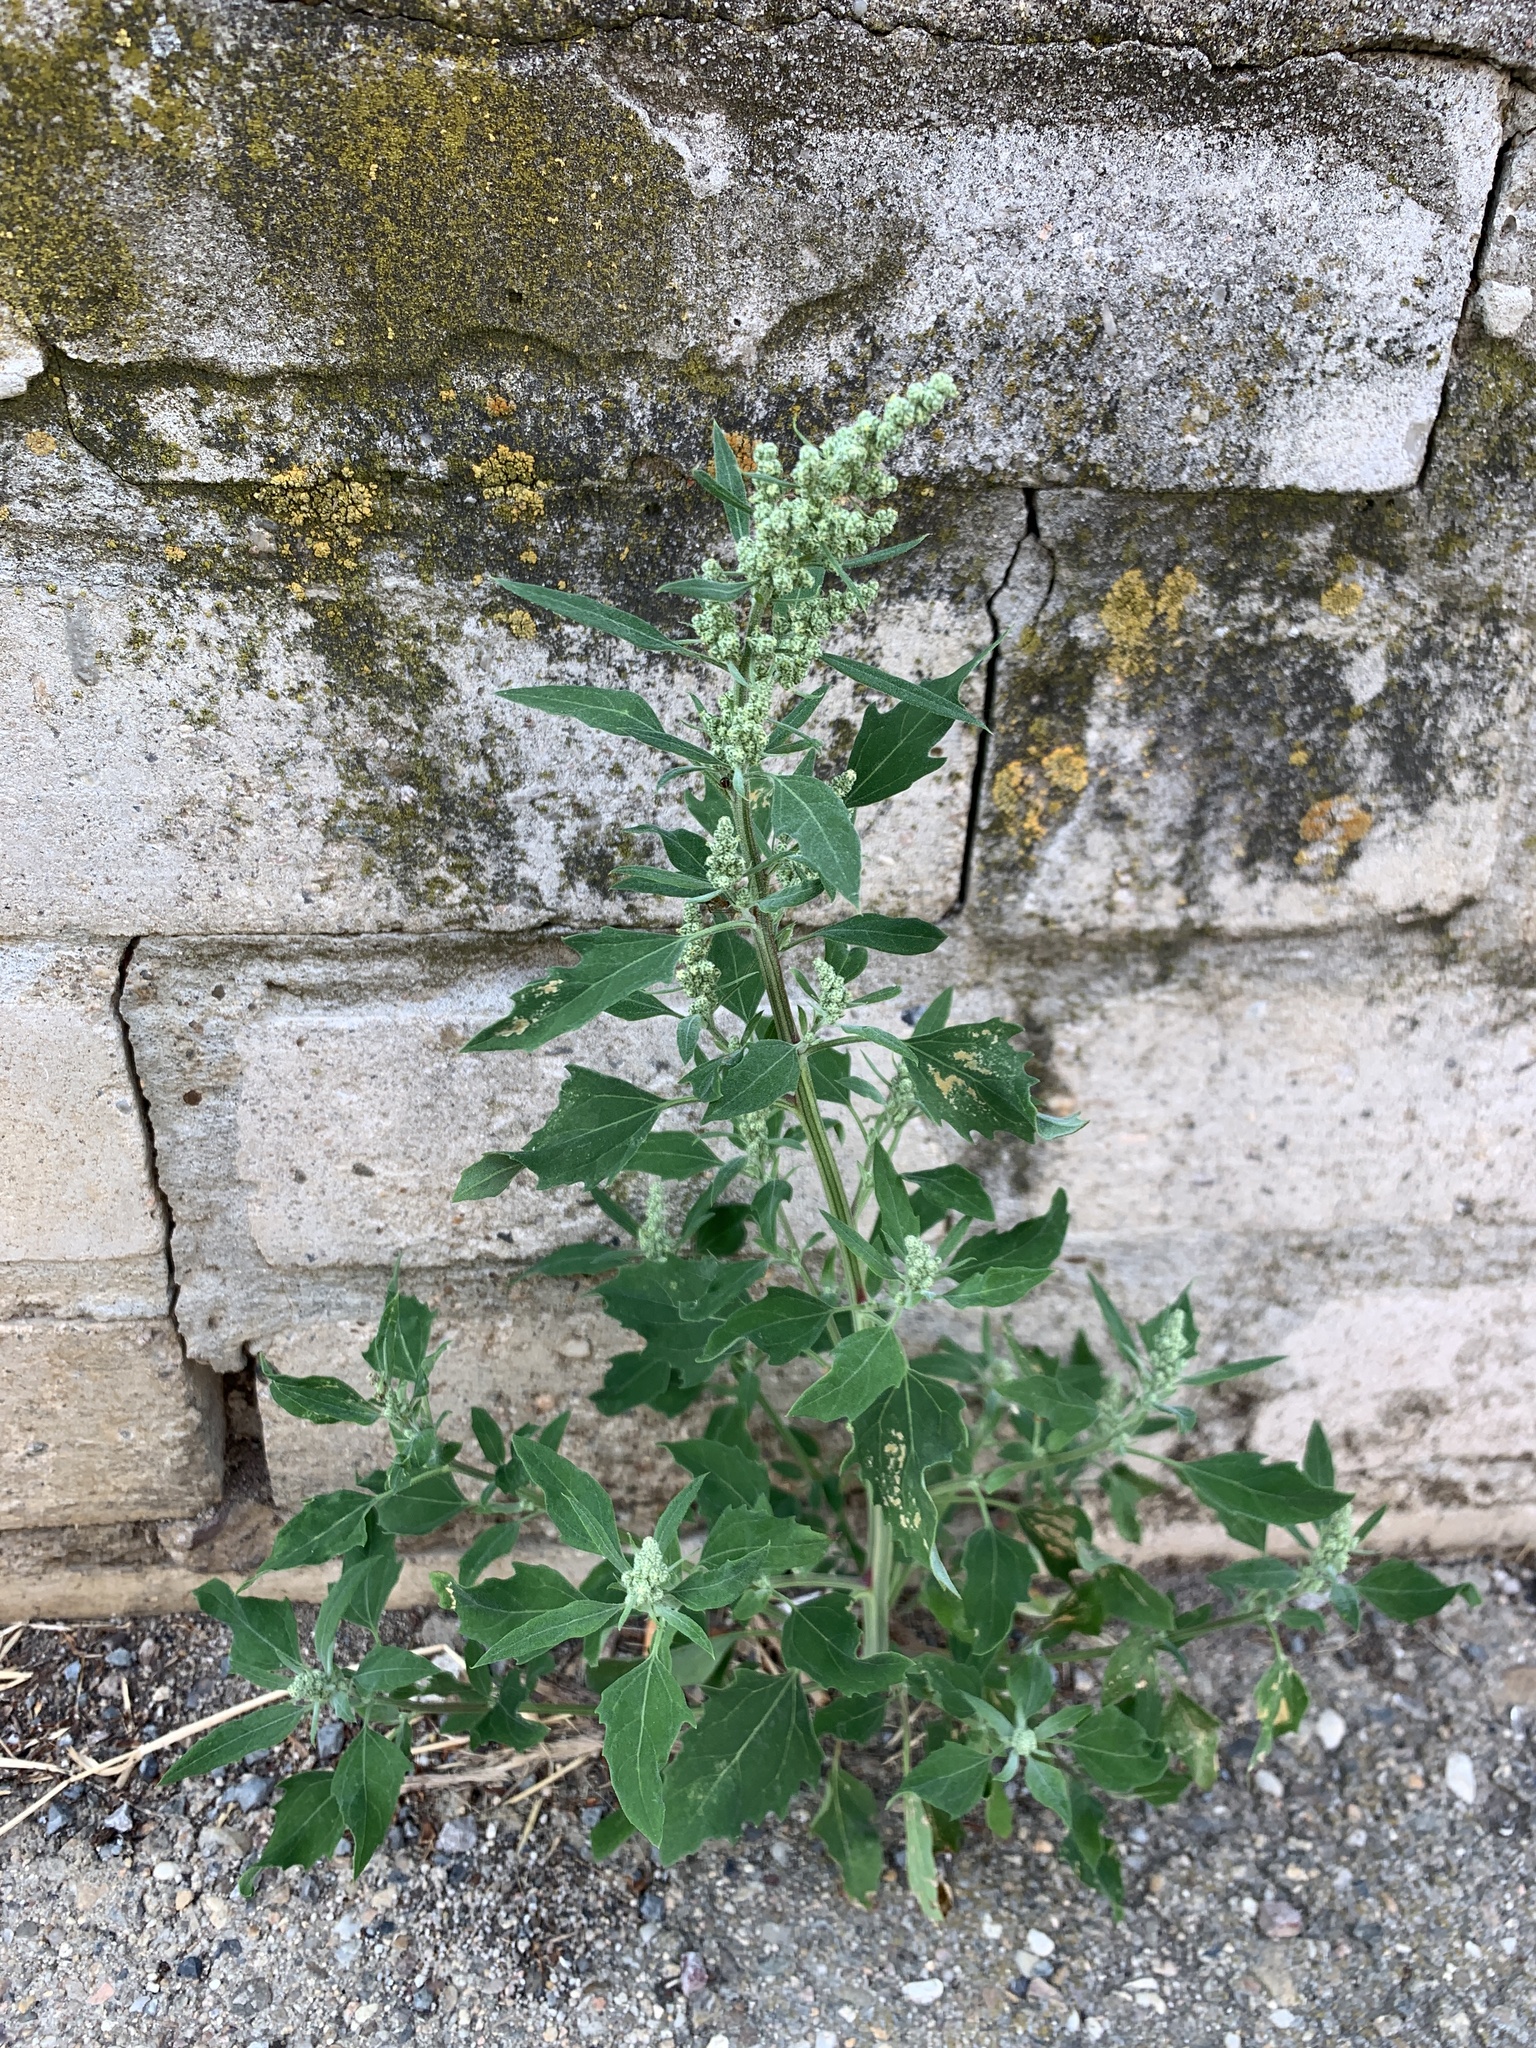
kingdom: Plantae
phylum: Tracheophyta
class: Magnoliopsida
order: Caryophyllales
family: Amaranthaceae
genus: Chenopodium
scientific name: Chenopodium album
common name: Fat-hen
